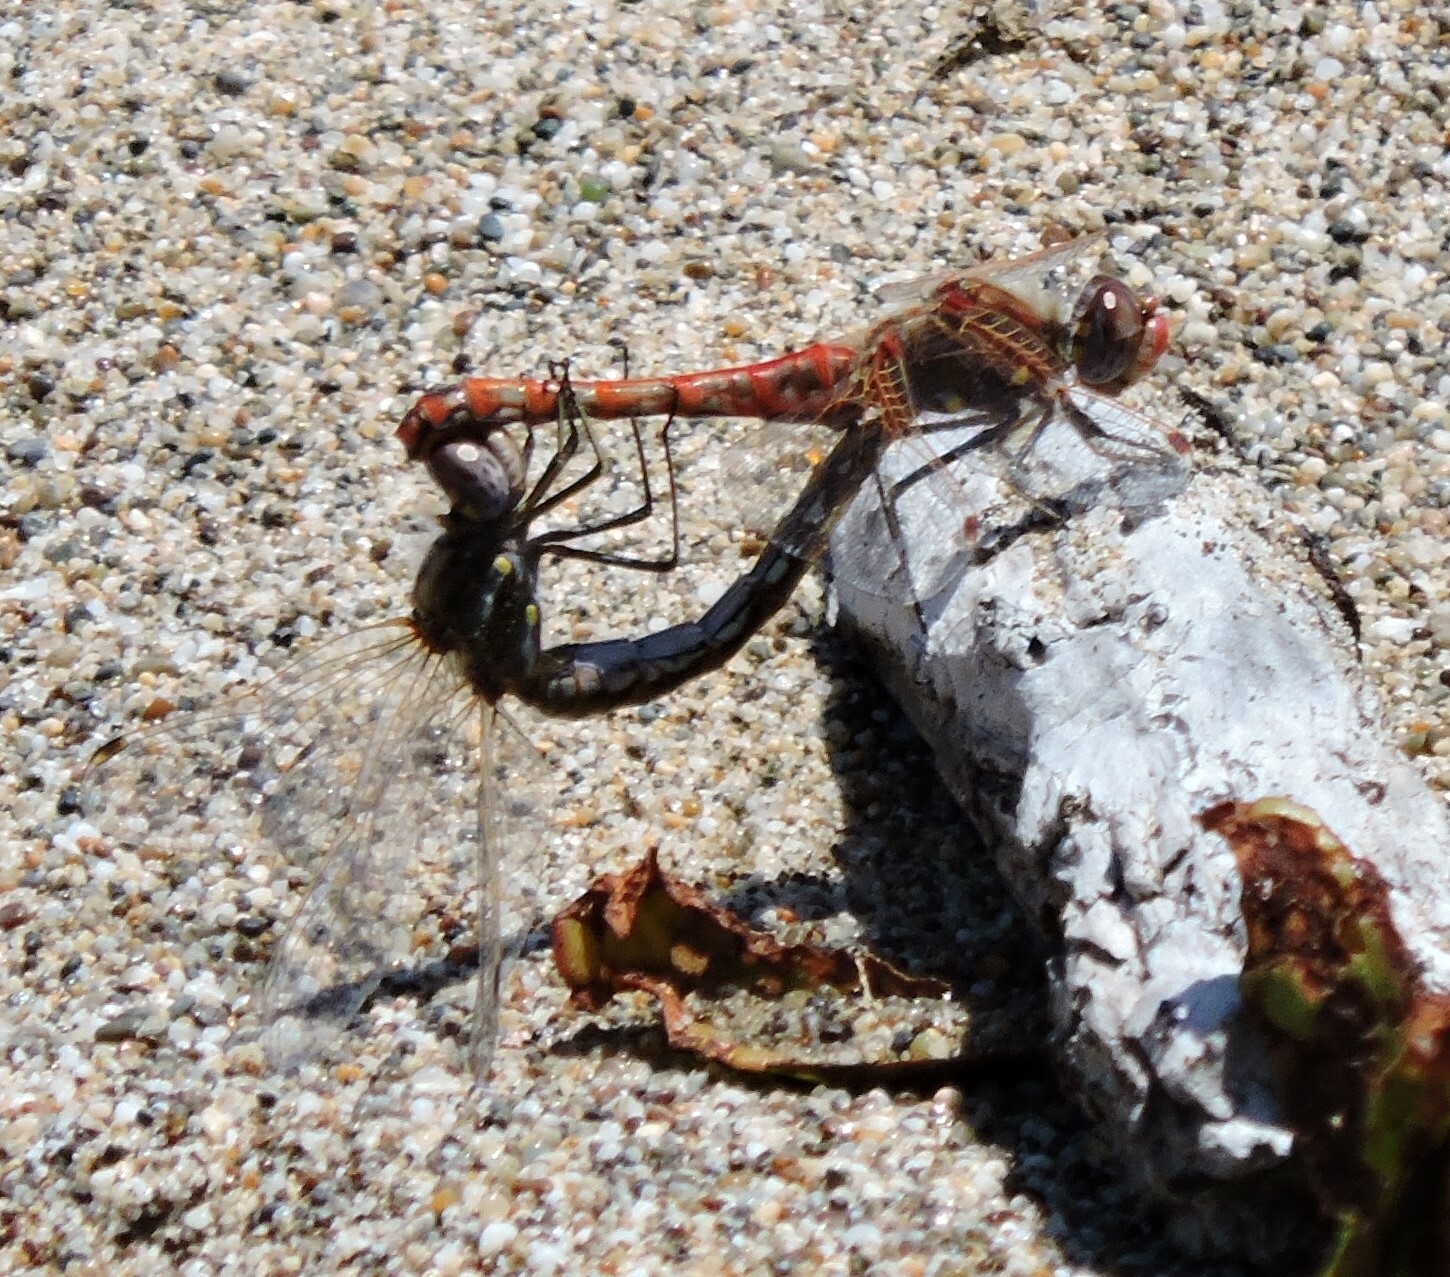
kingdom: Animalia
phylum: Arthropoda
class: Insecta
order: Odonata
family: Libellulidae
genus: Sympetrum
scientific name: Sympetrum corruptum
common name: Variegated meadowhawk
